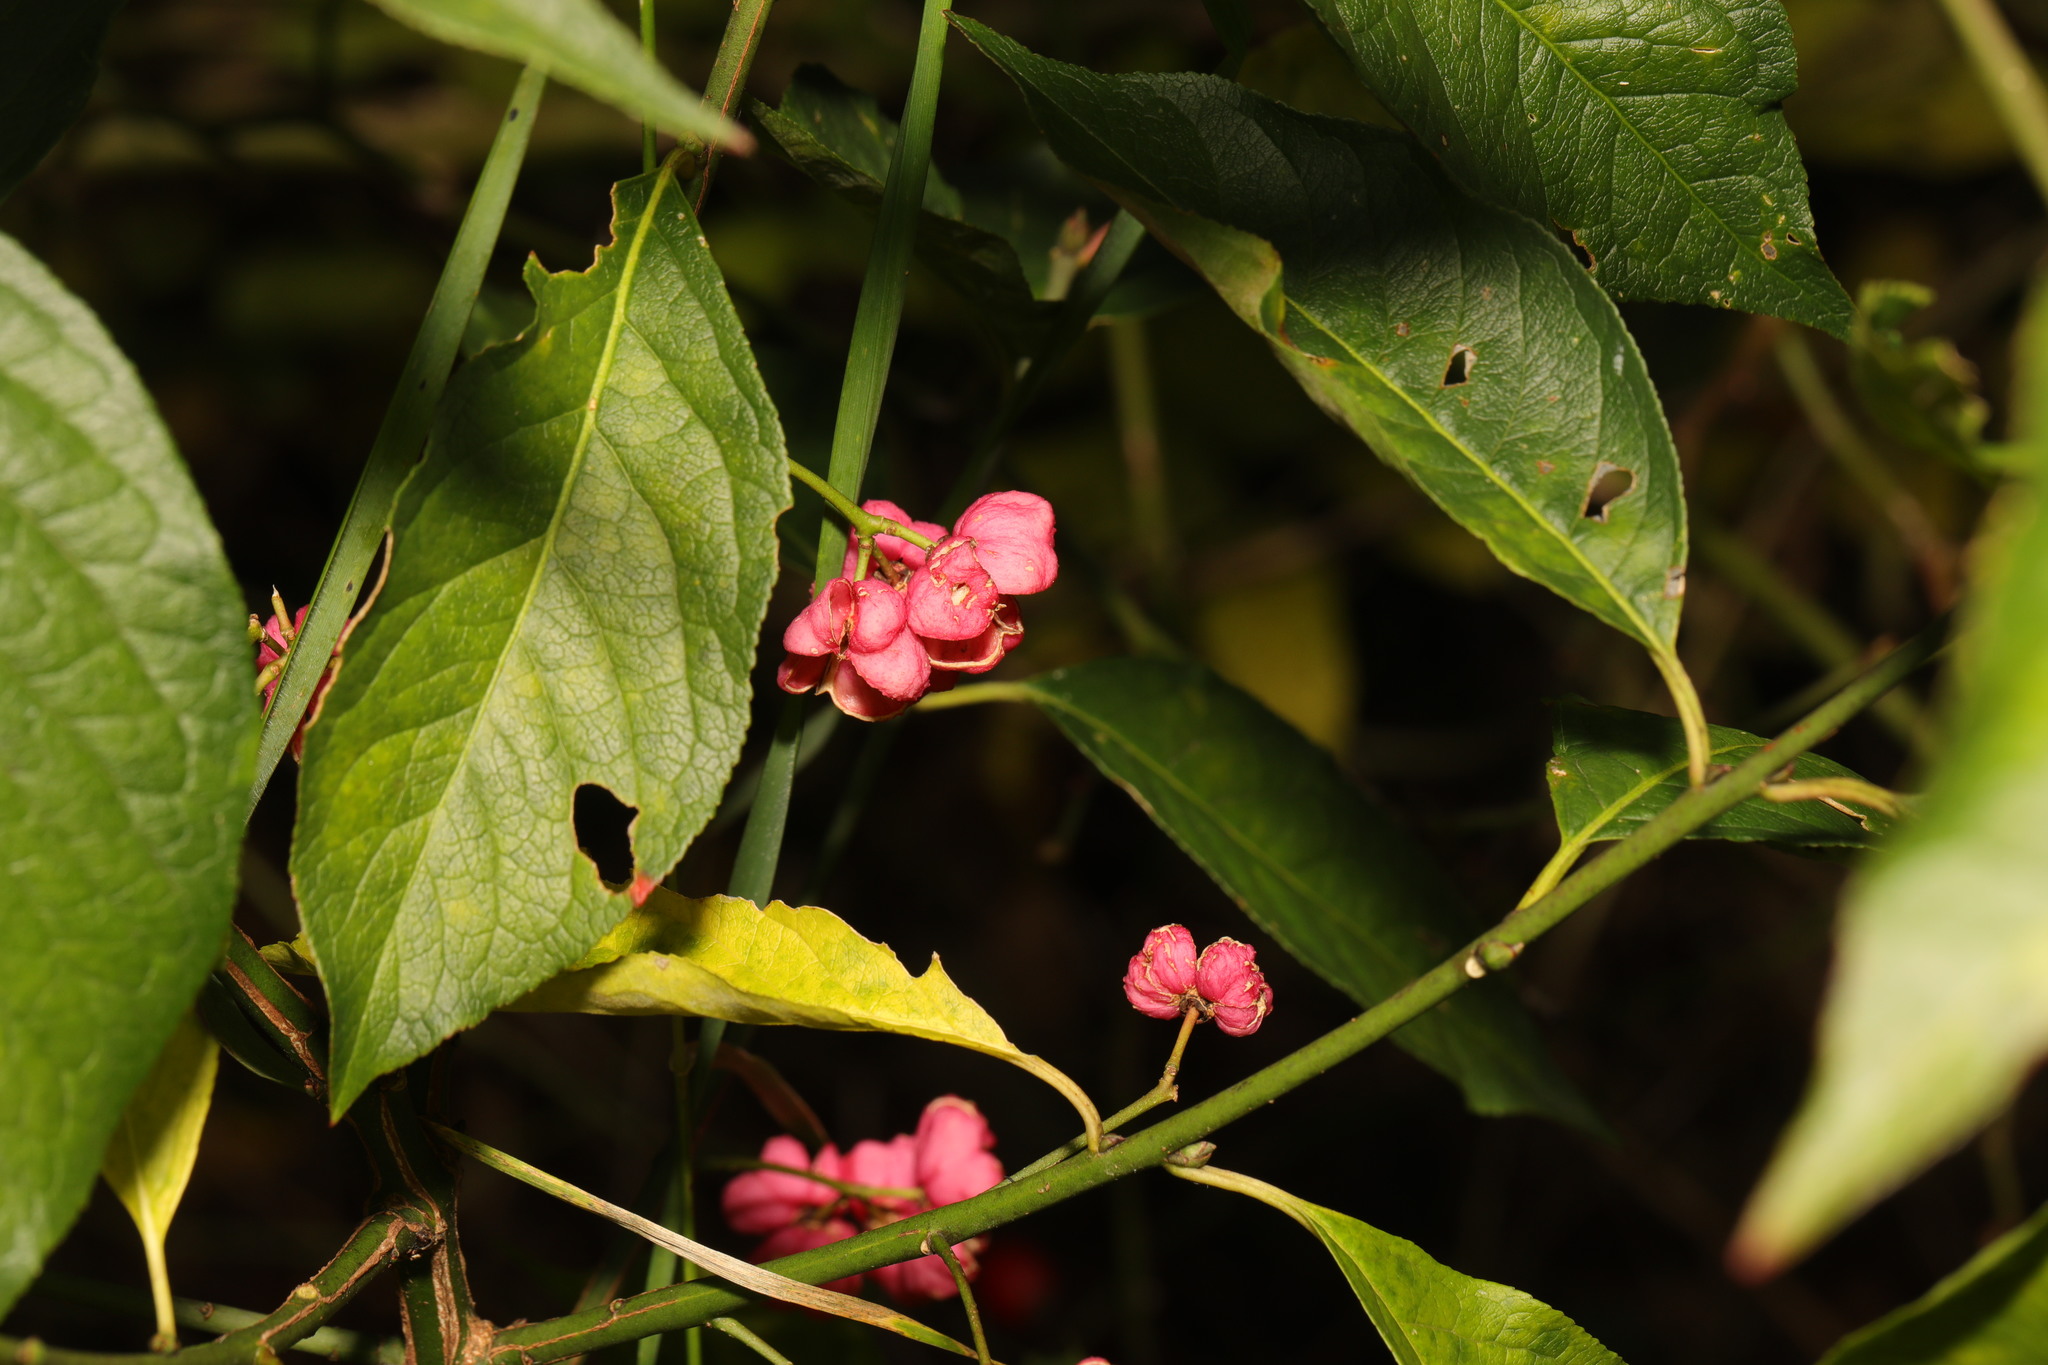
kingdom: Plantae
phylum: Tracheophyta
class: Magnoliopsida
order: Celastrales
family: Celastraceae
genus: Euonymus
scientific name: Euonymus europaeus
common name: Spindle
